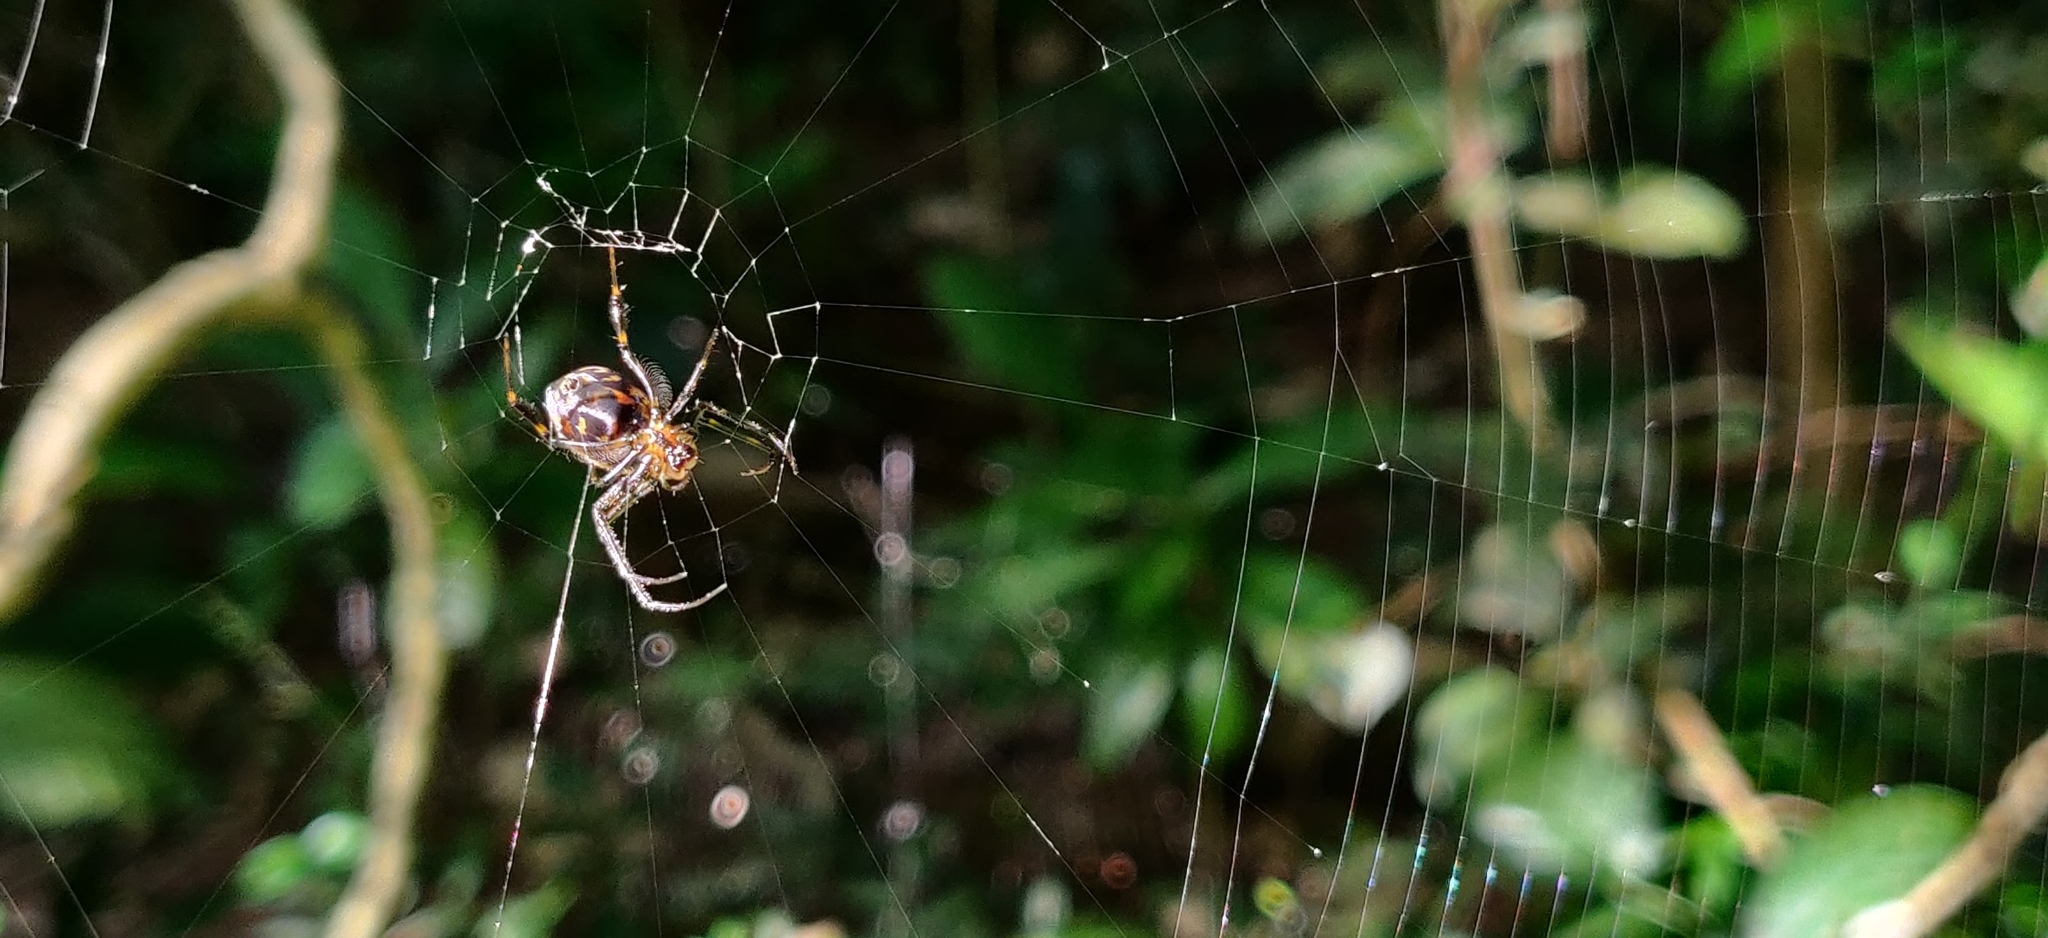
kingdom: Animalia
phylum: Arthropoda
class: Arachnida
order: Araneae
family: Tetragnathidae
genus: Leucauge
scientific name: Leucauge fastigata
